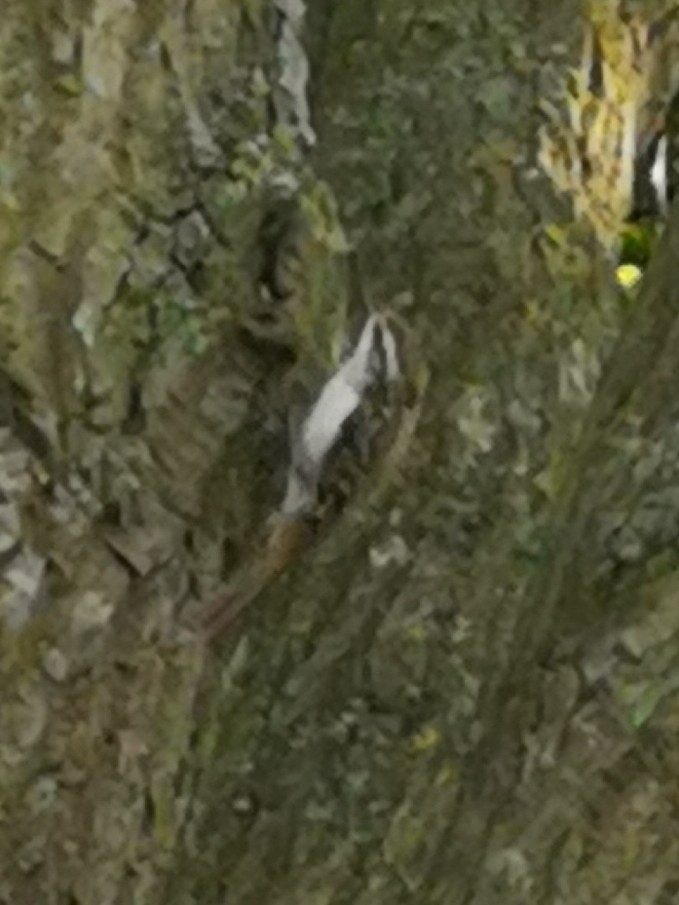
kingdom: Animalia
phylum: Chordata
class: Aves
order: Passeriformes
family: Certhiidae
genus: Certhia
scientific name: Certhia familiaris
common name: Eurasian treecreeper
